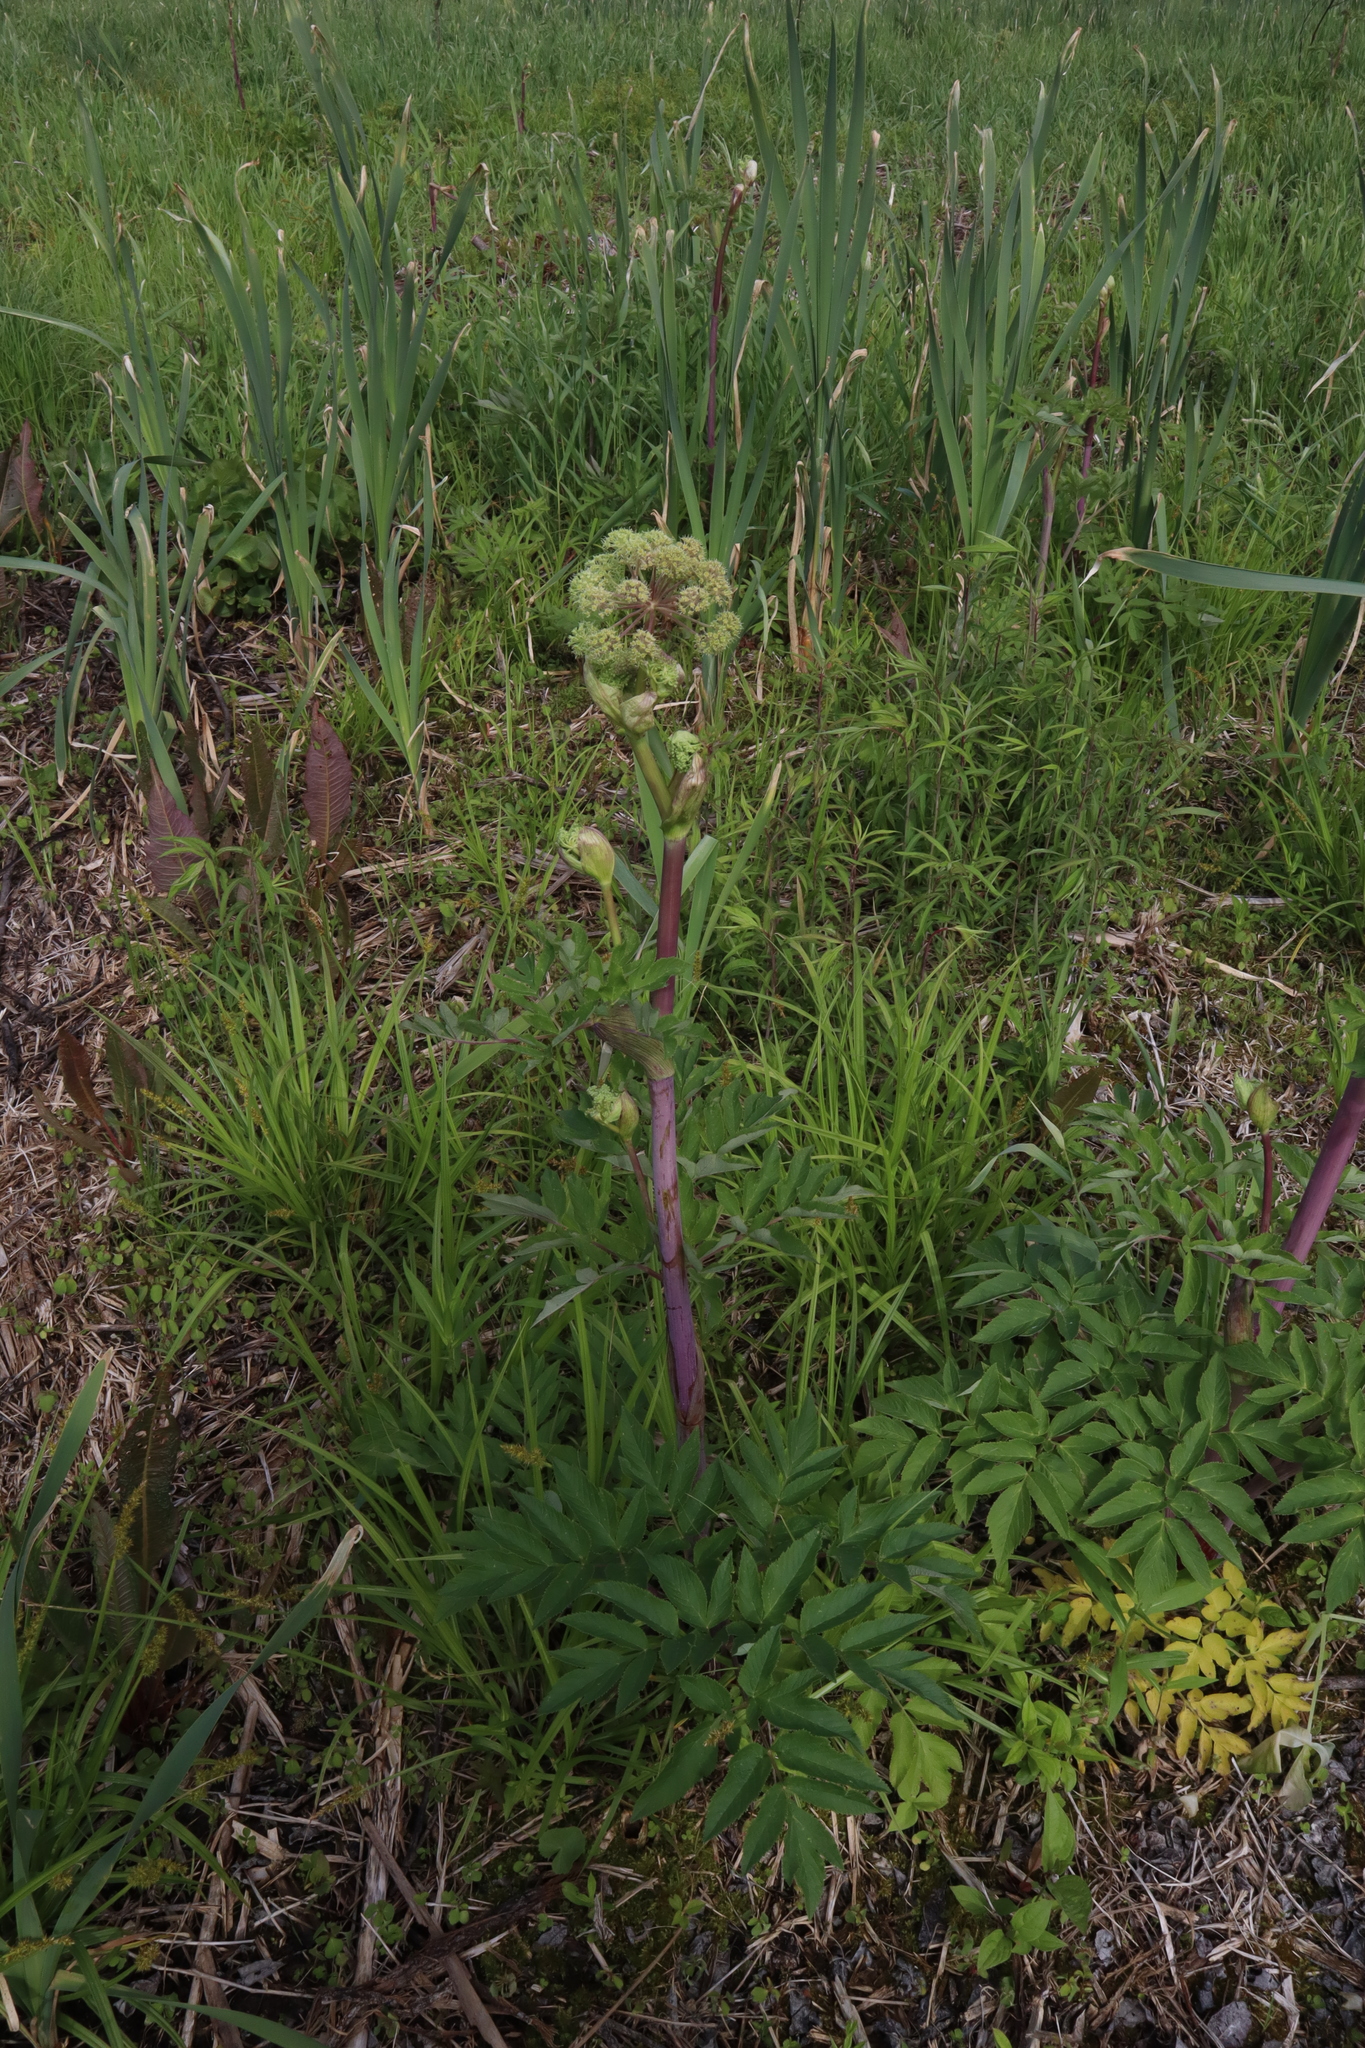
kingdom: Plantae
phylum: Tracheophyta
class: Magnoliopsida
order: Apiales
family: Apiaceae
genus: Angelica
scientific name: Angelica atropurpurea
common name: Great angelica
